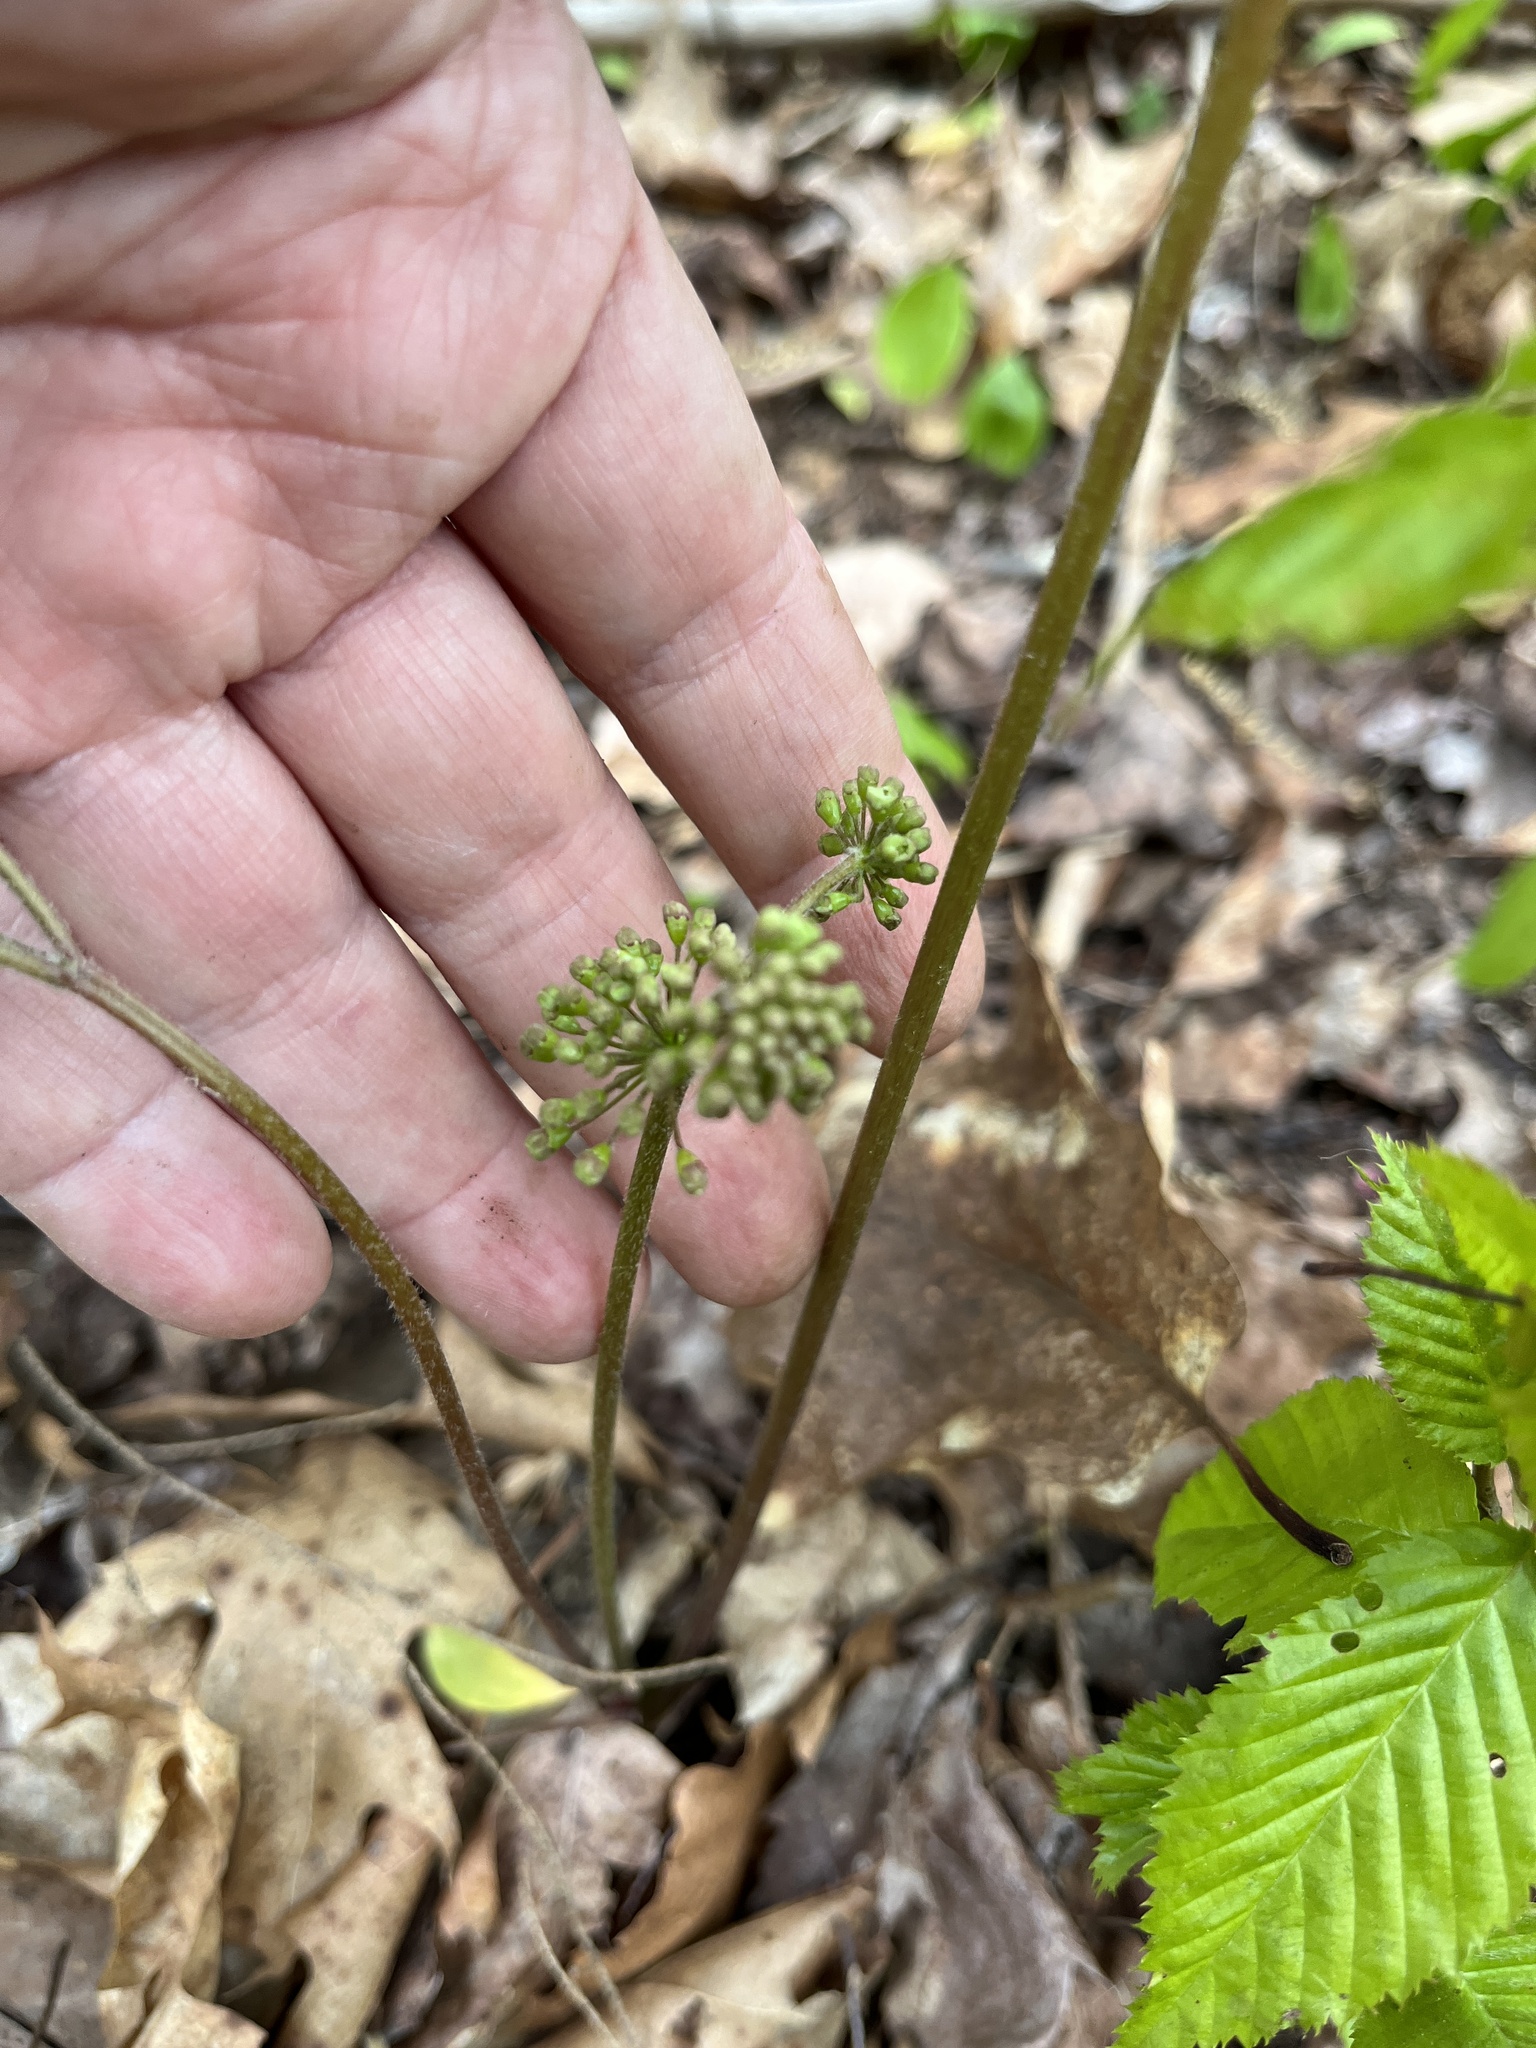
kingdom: Plantae
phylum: Tracheophyta
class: Magnoliopsida
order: Apiales
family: Araliaceae
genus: Aralia
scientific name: Aralia nudicaulis
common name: Wild sarsaparilla
